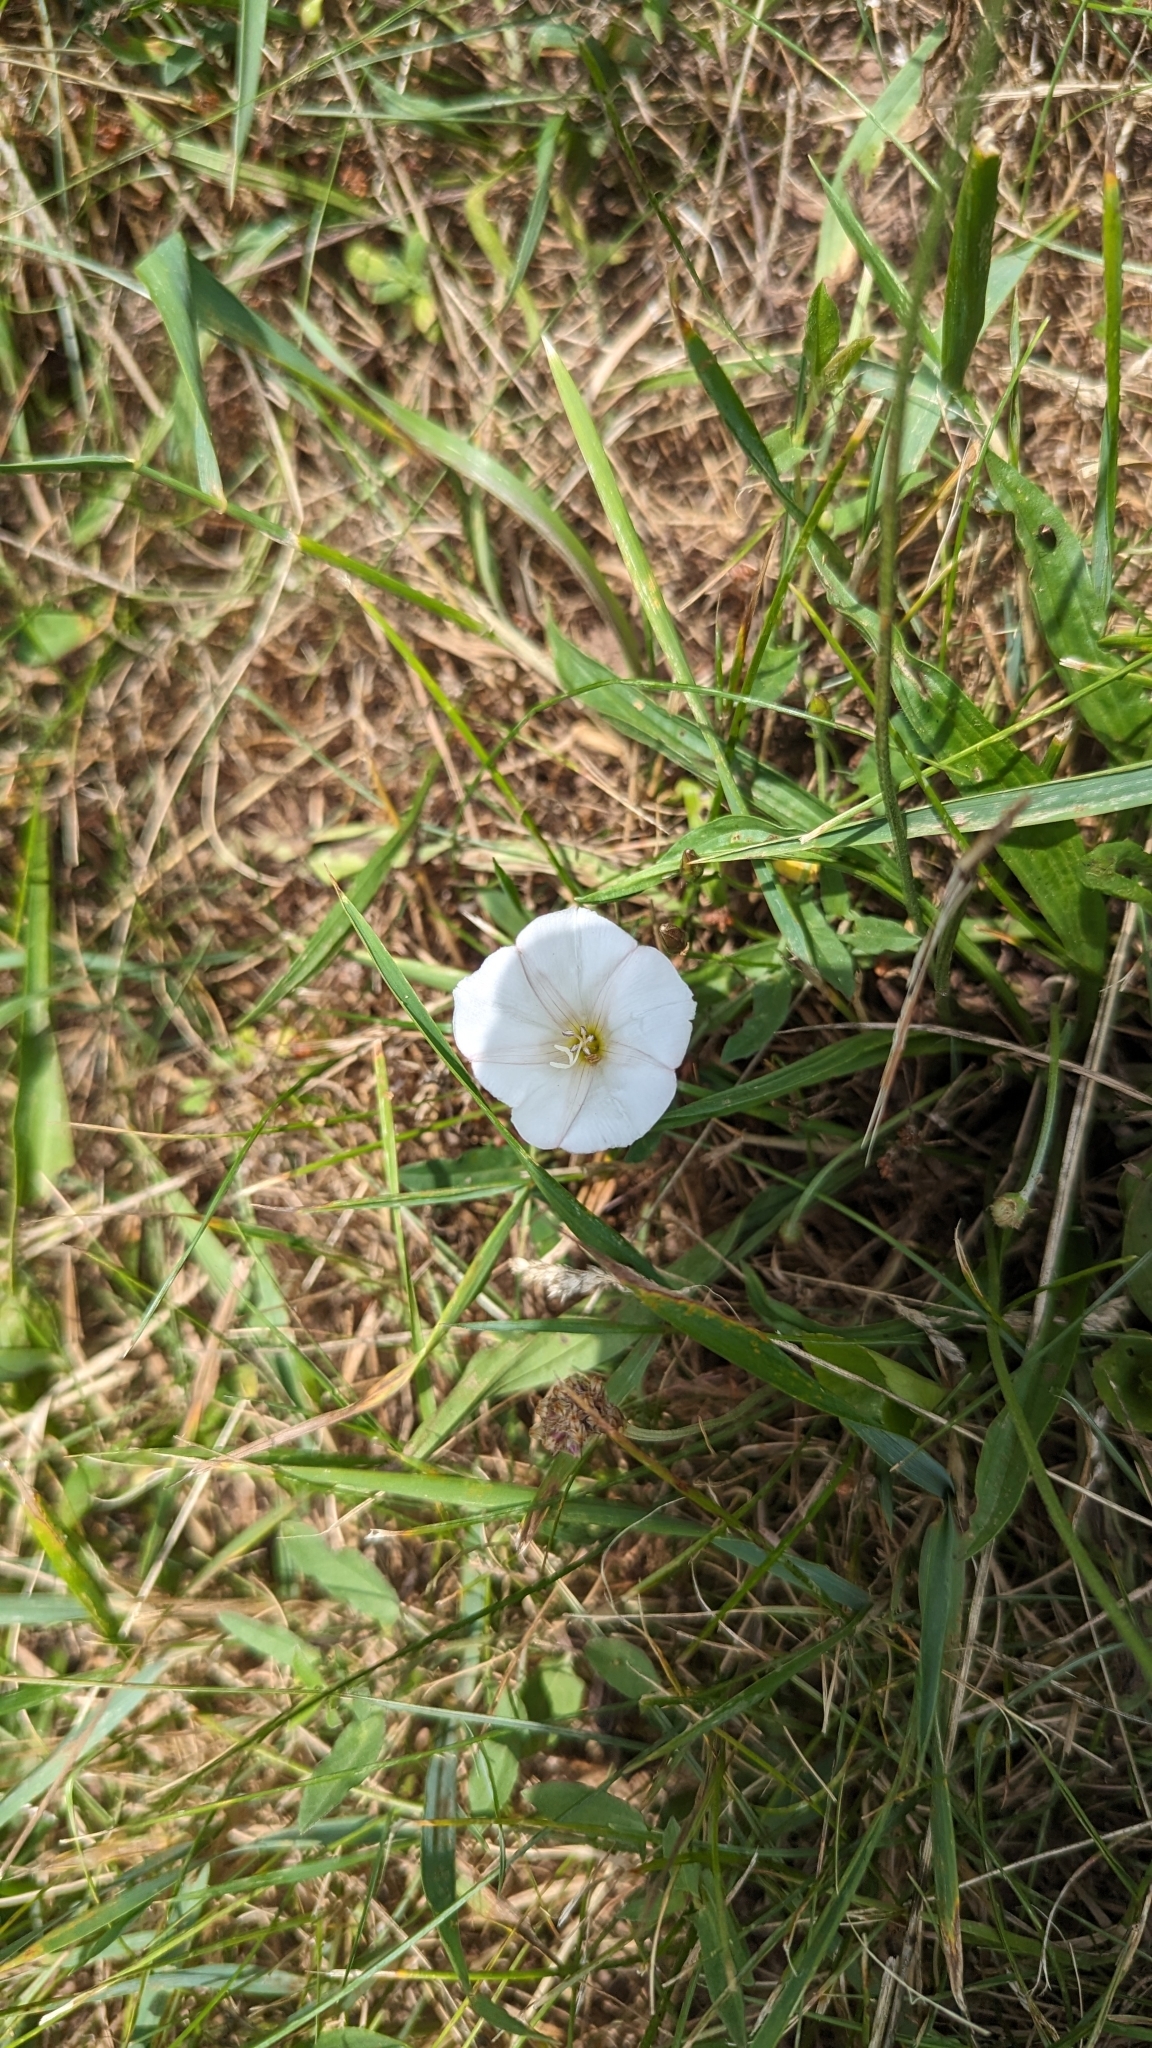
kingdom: Plantae
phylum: Tracheophyta
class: Magnoliopsida
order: Solanales
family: Convolvulaceae
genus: Convolvulus
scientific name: Convolvulus arvensis
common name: Field bindweed
